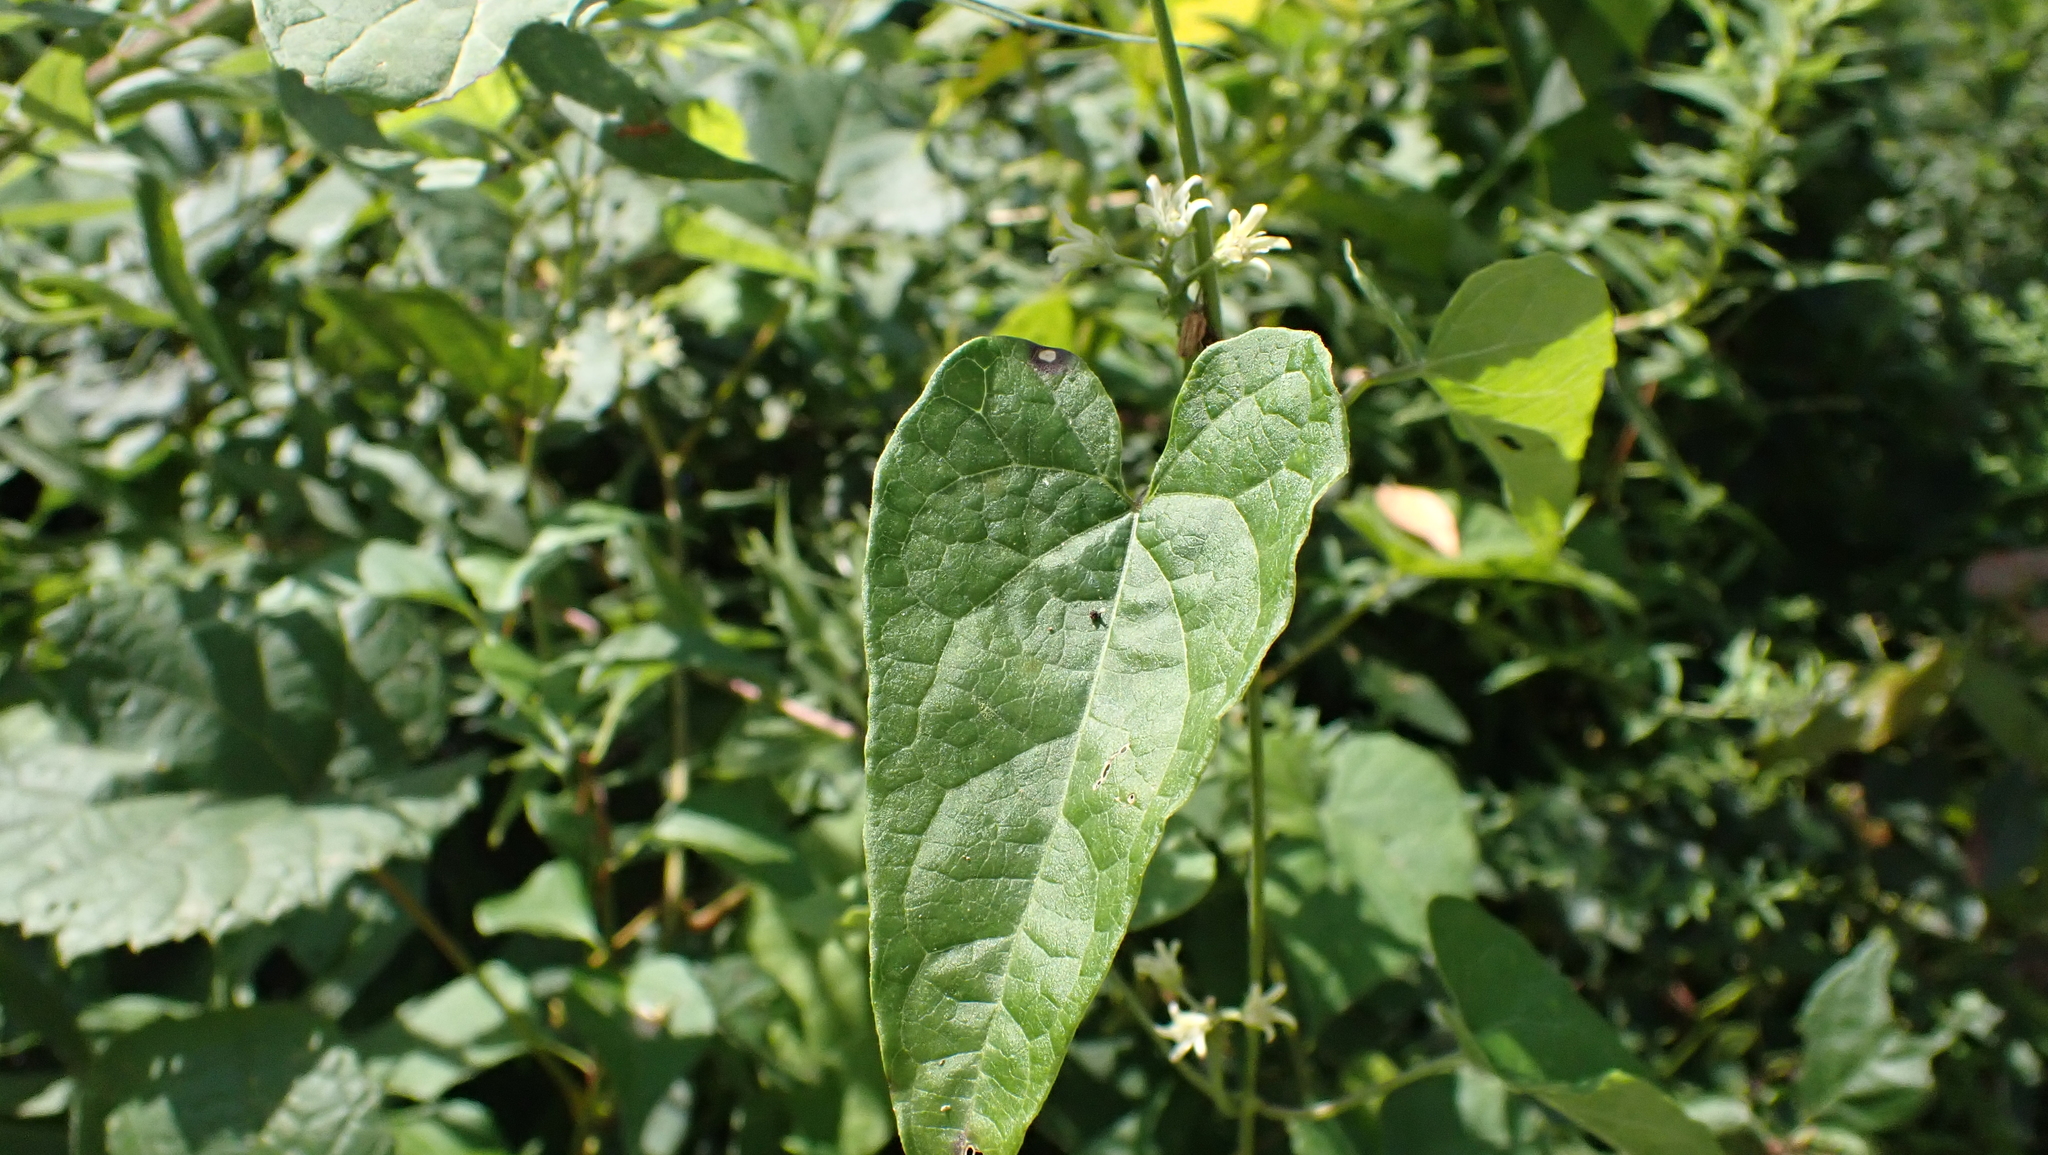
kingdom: Plantae
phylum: Tracheophyta
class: Magnoliopsida
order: Gentianales
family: Apocynaceae
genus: Cynanchum
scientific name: Cynanchum laeve
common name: Sandvine
